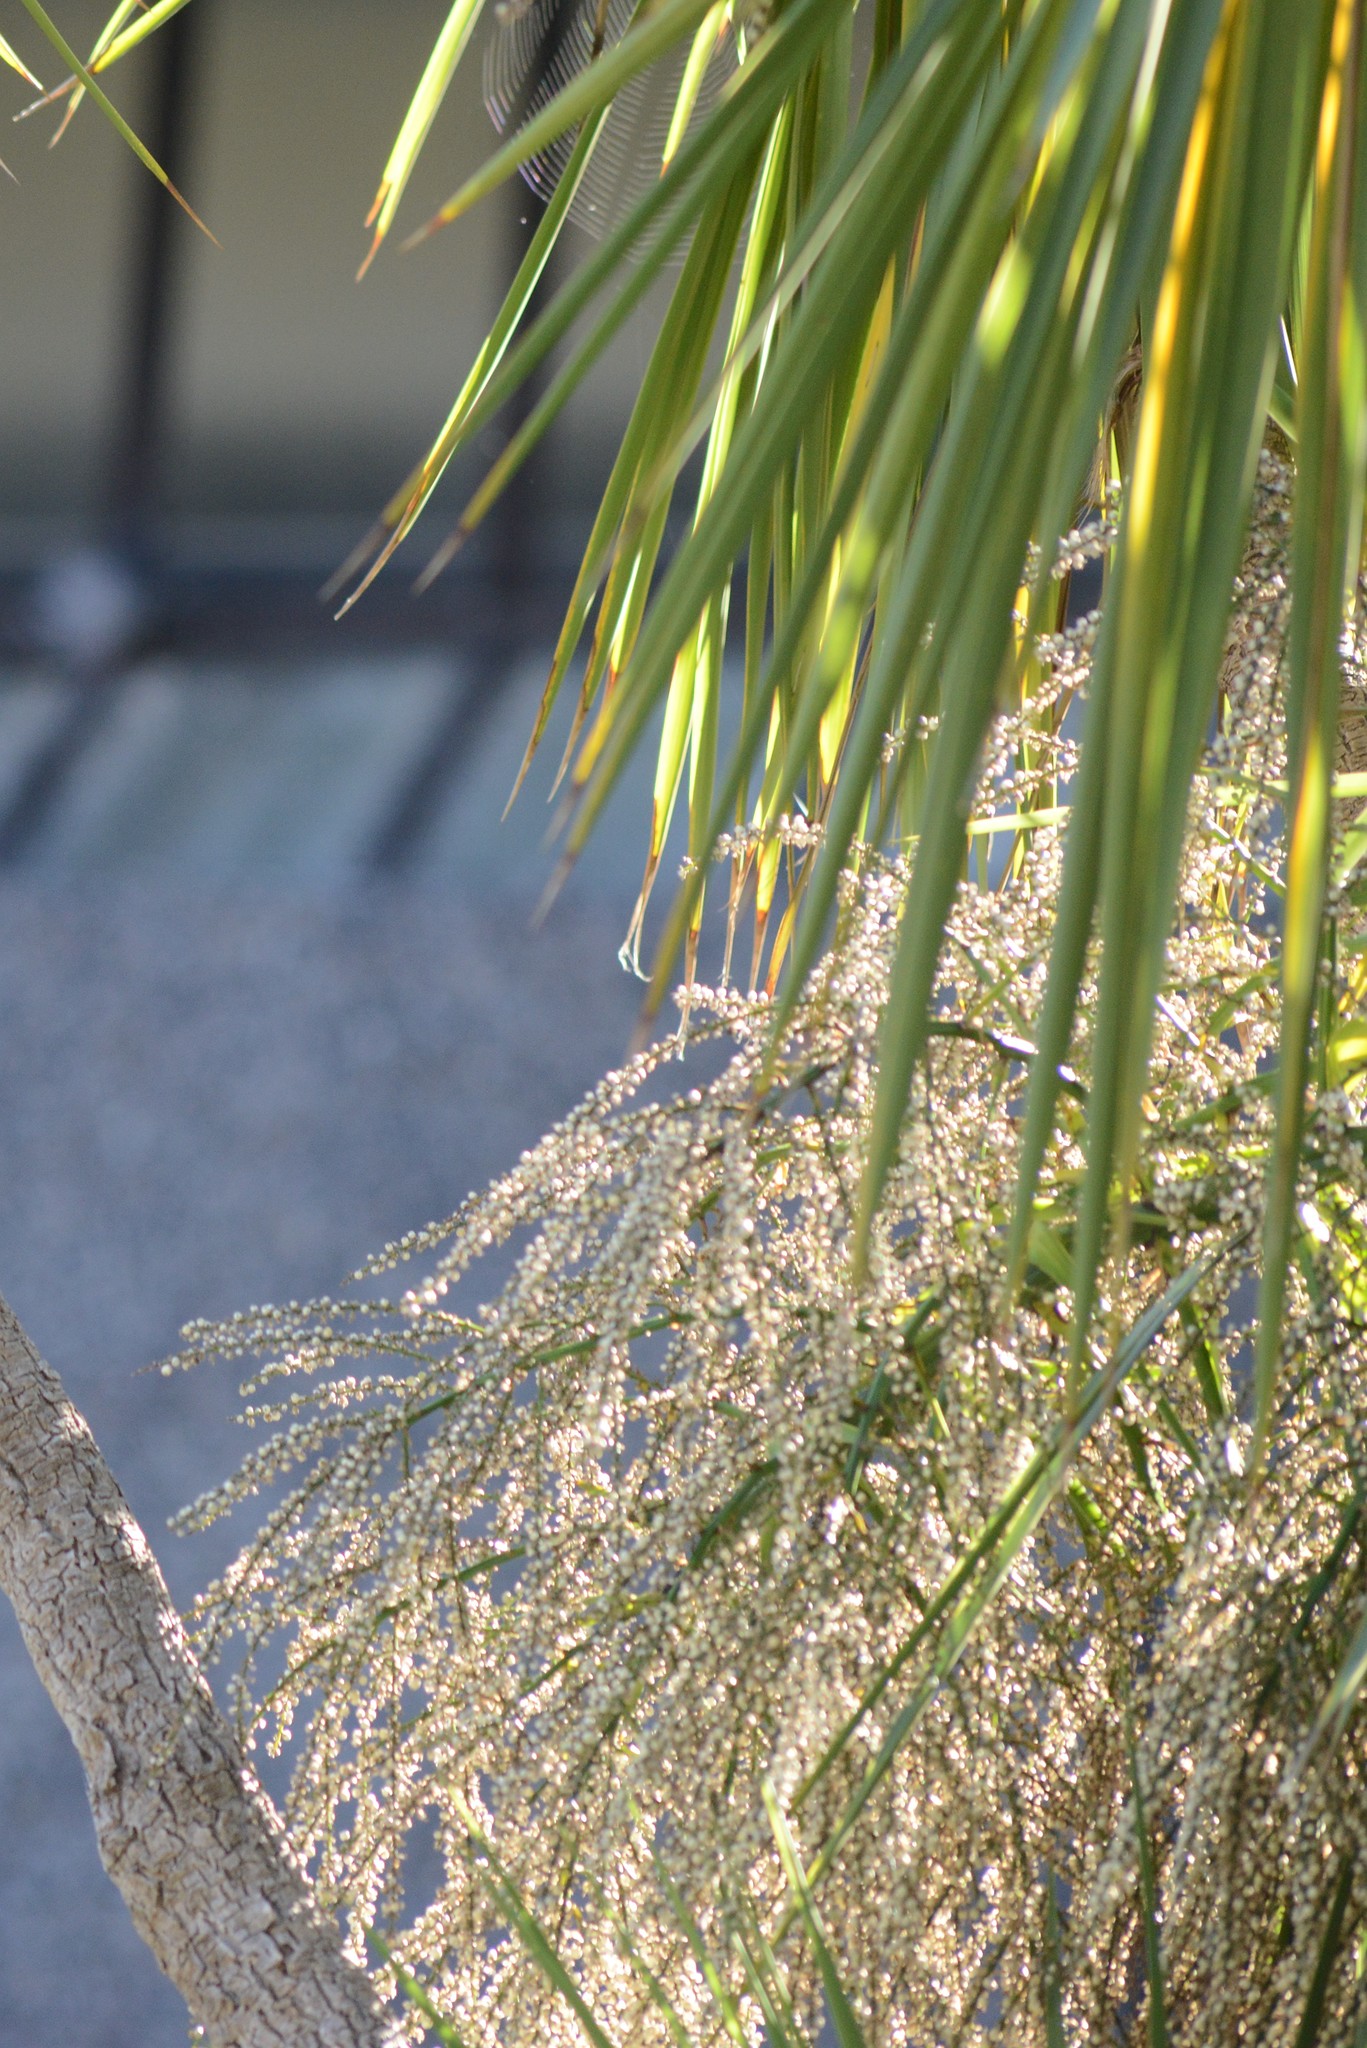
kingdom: Plantae
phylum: Tracheophyta
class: Liliopsida
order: Asparagales
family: Asparagaceae
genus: Cordyline
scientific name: Cordyline australis
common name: Cabbage-palm
